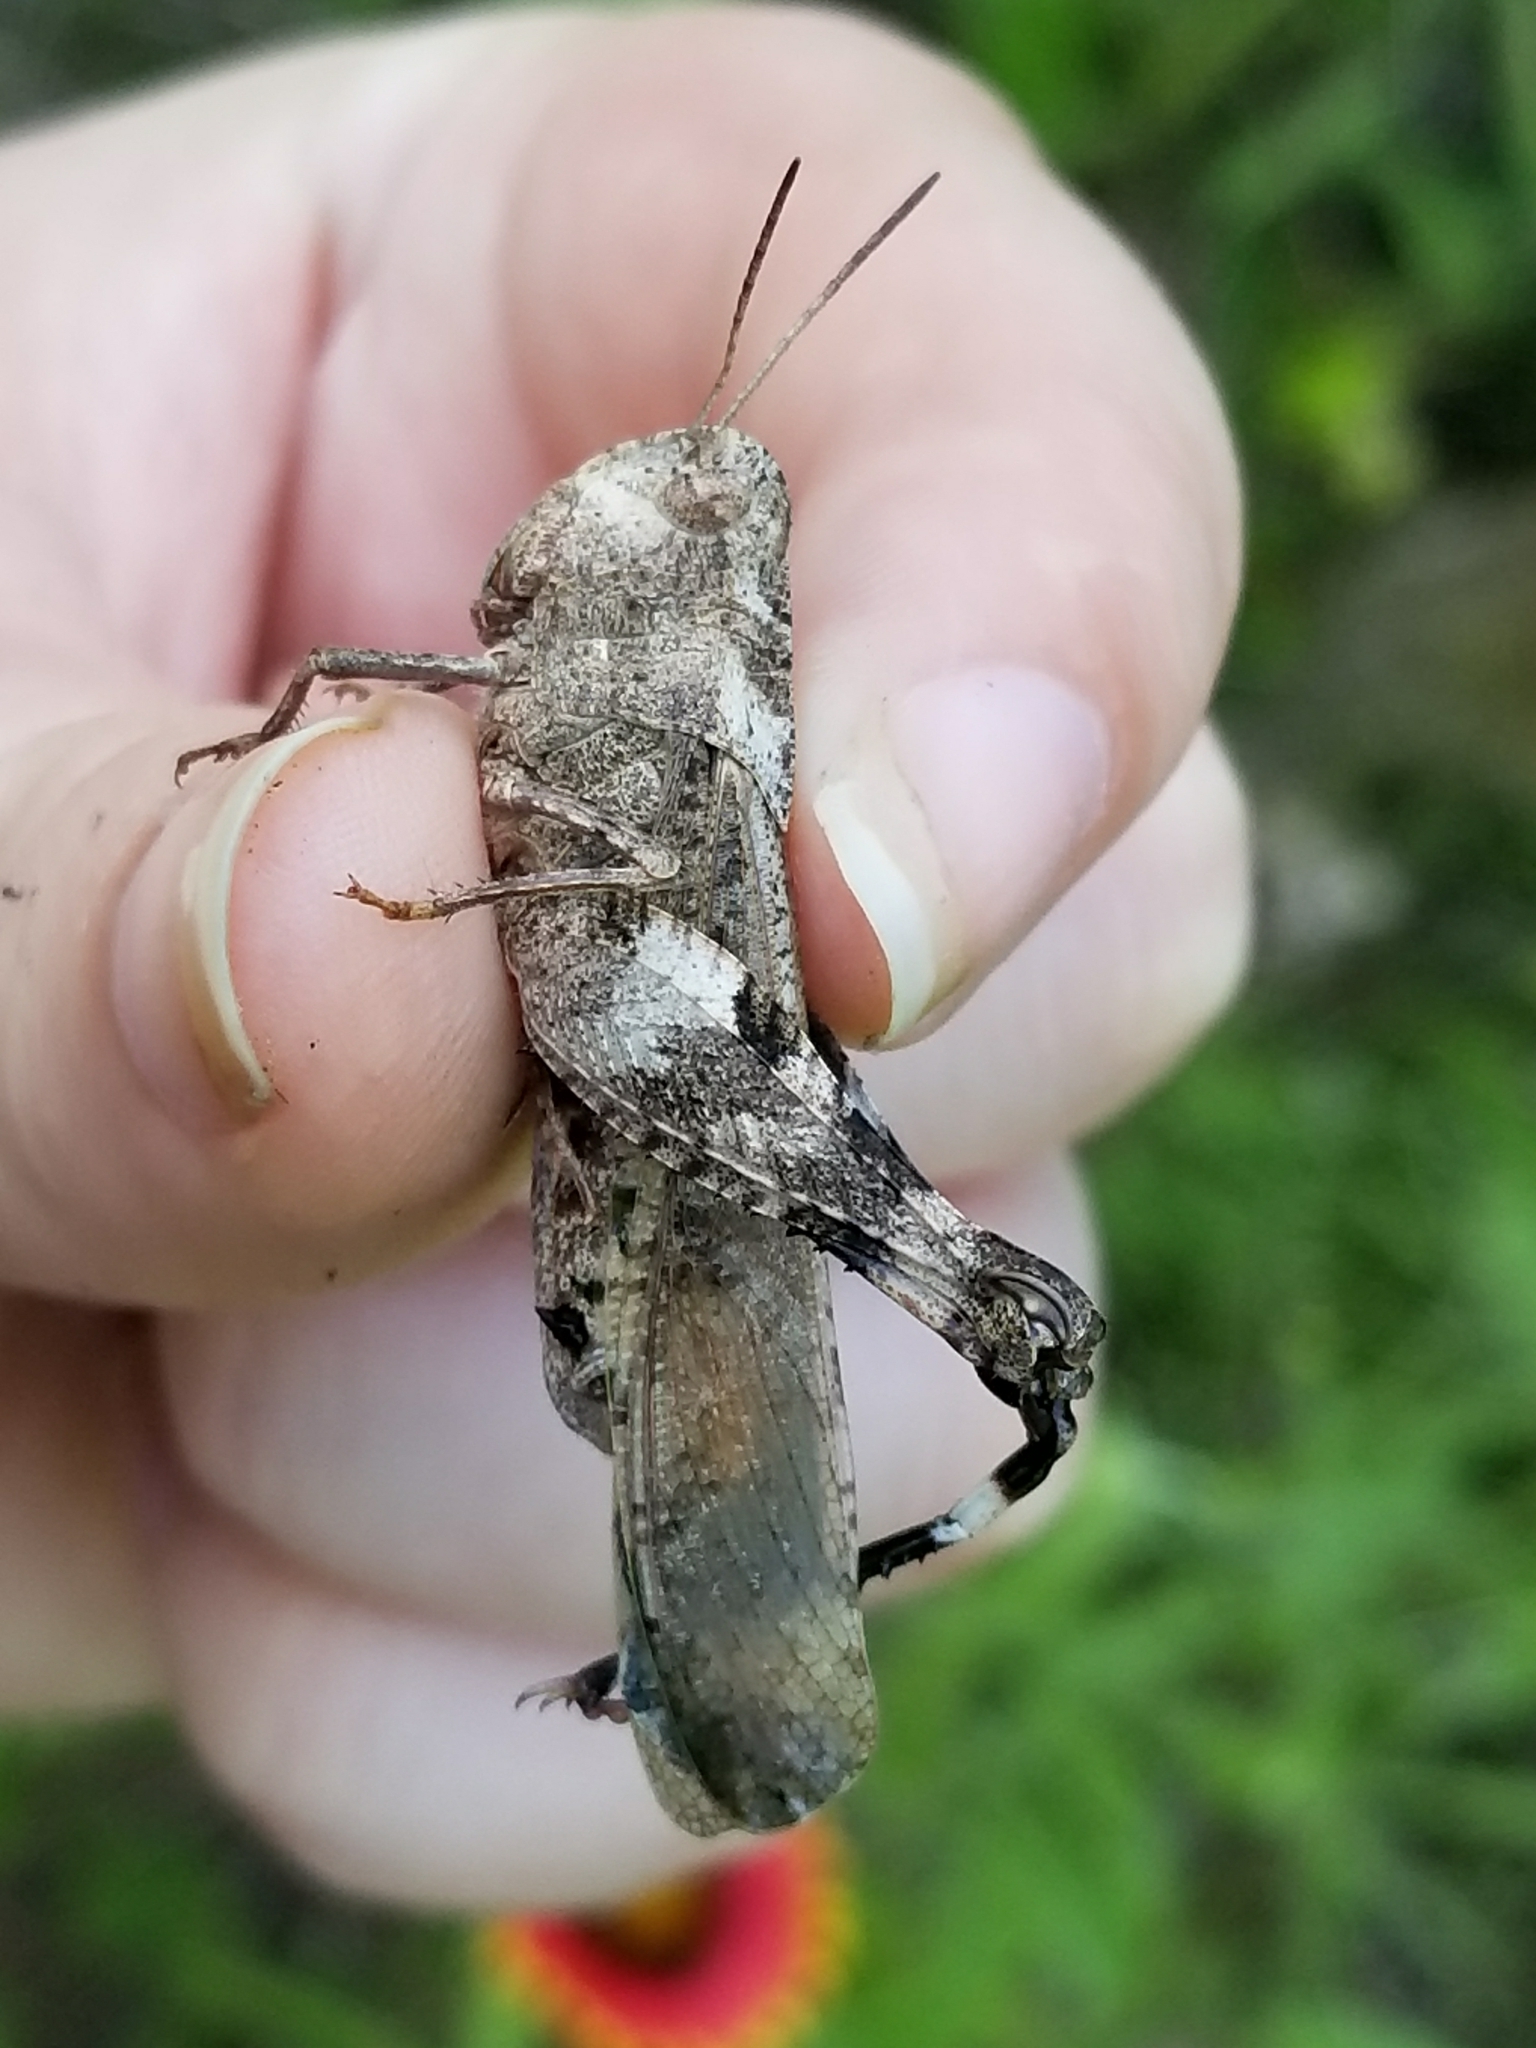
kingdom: Animalia
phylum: Arthropoda
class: Insecta
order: Orthoptera
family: Acrididae
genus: Arphia
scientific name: Arphia simplex
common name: Plains yellow-winged grasshopper
